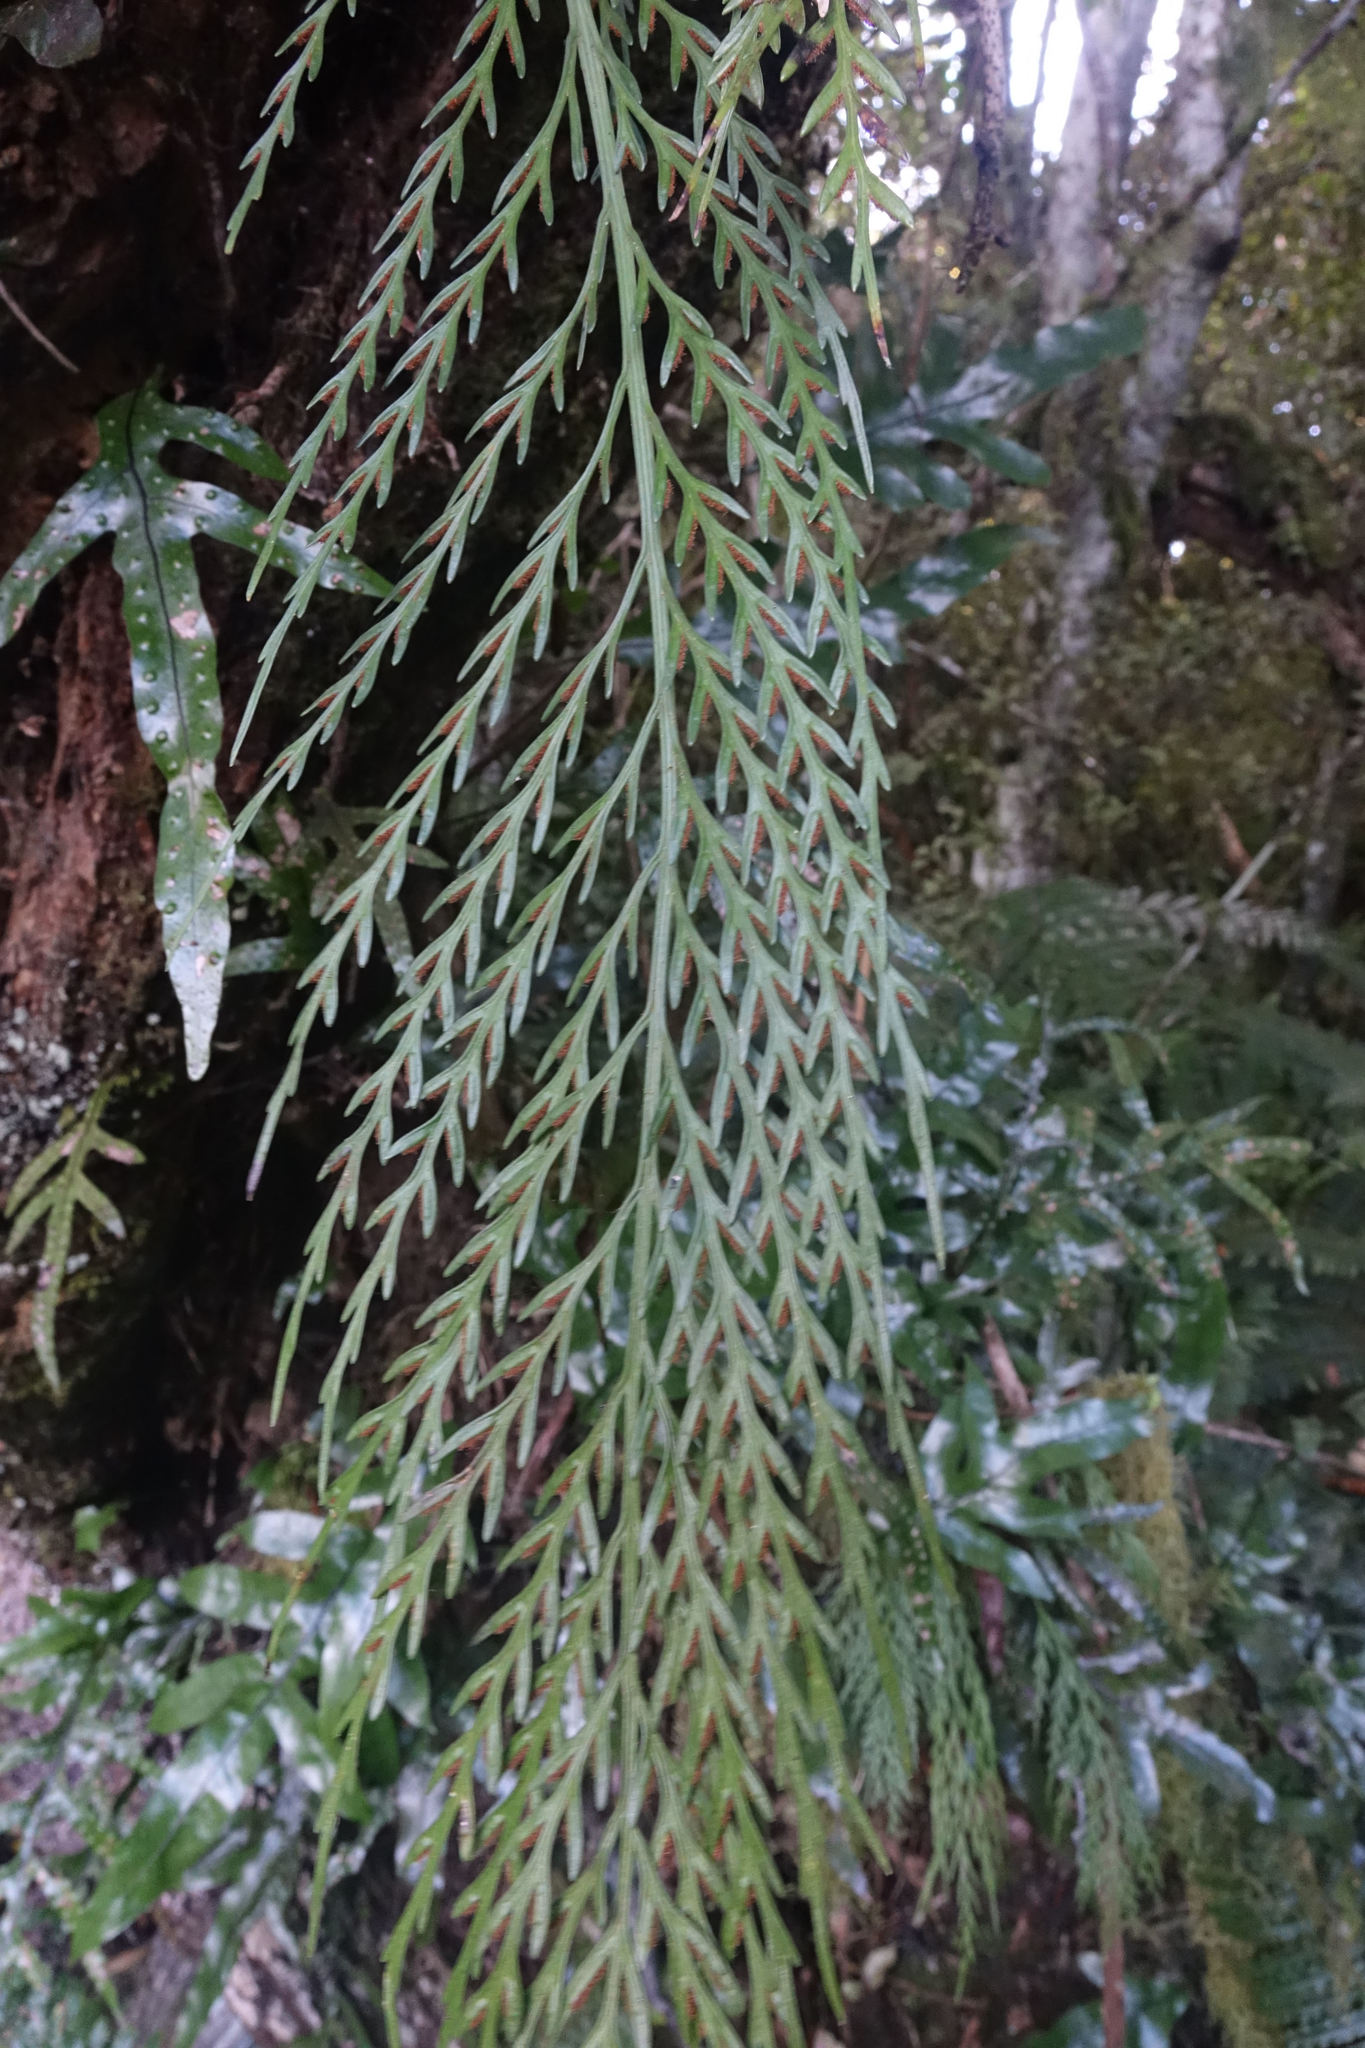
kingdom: Plantae
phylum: Tracheophyta
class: Polypodiopsida
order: Polypodiales
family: Aspleniaceae
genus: Asplenium
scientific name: Asplenium flaccidum
